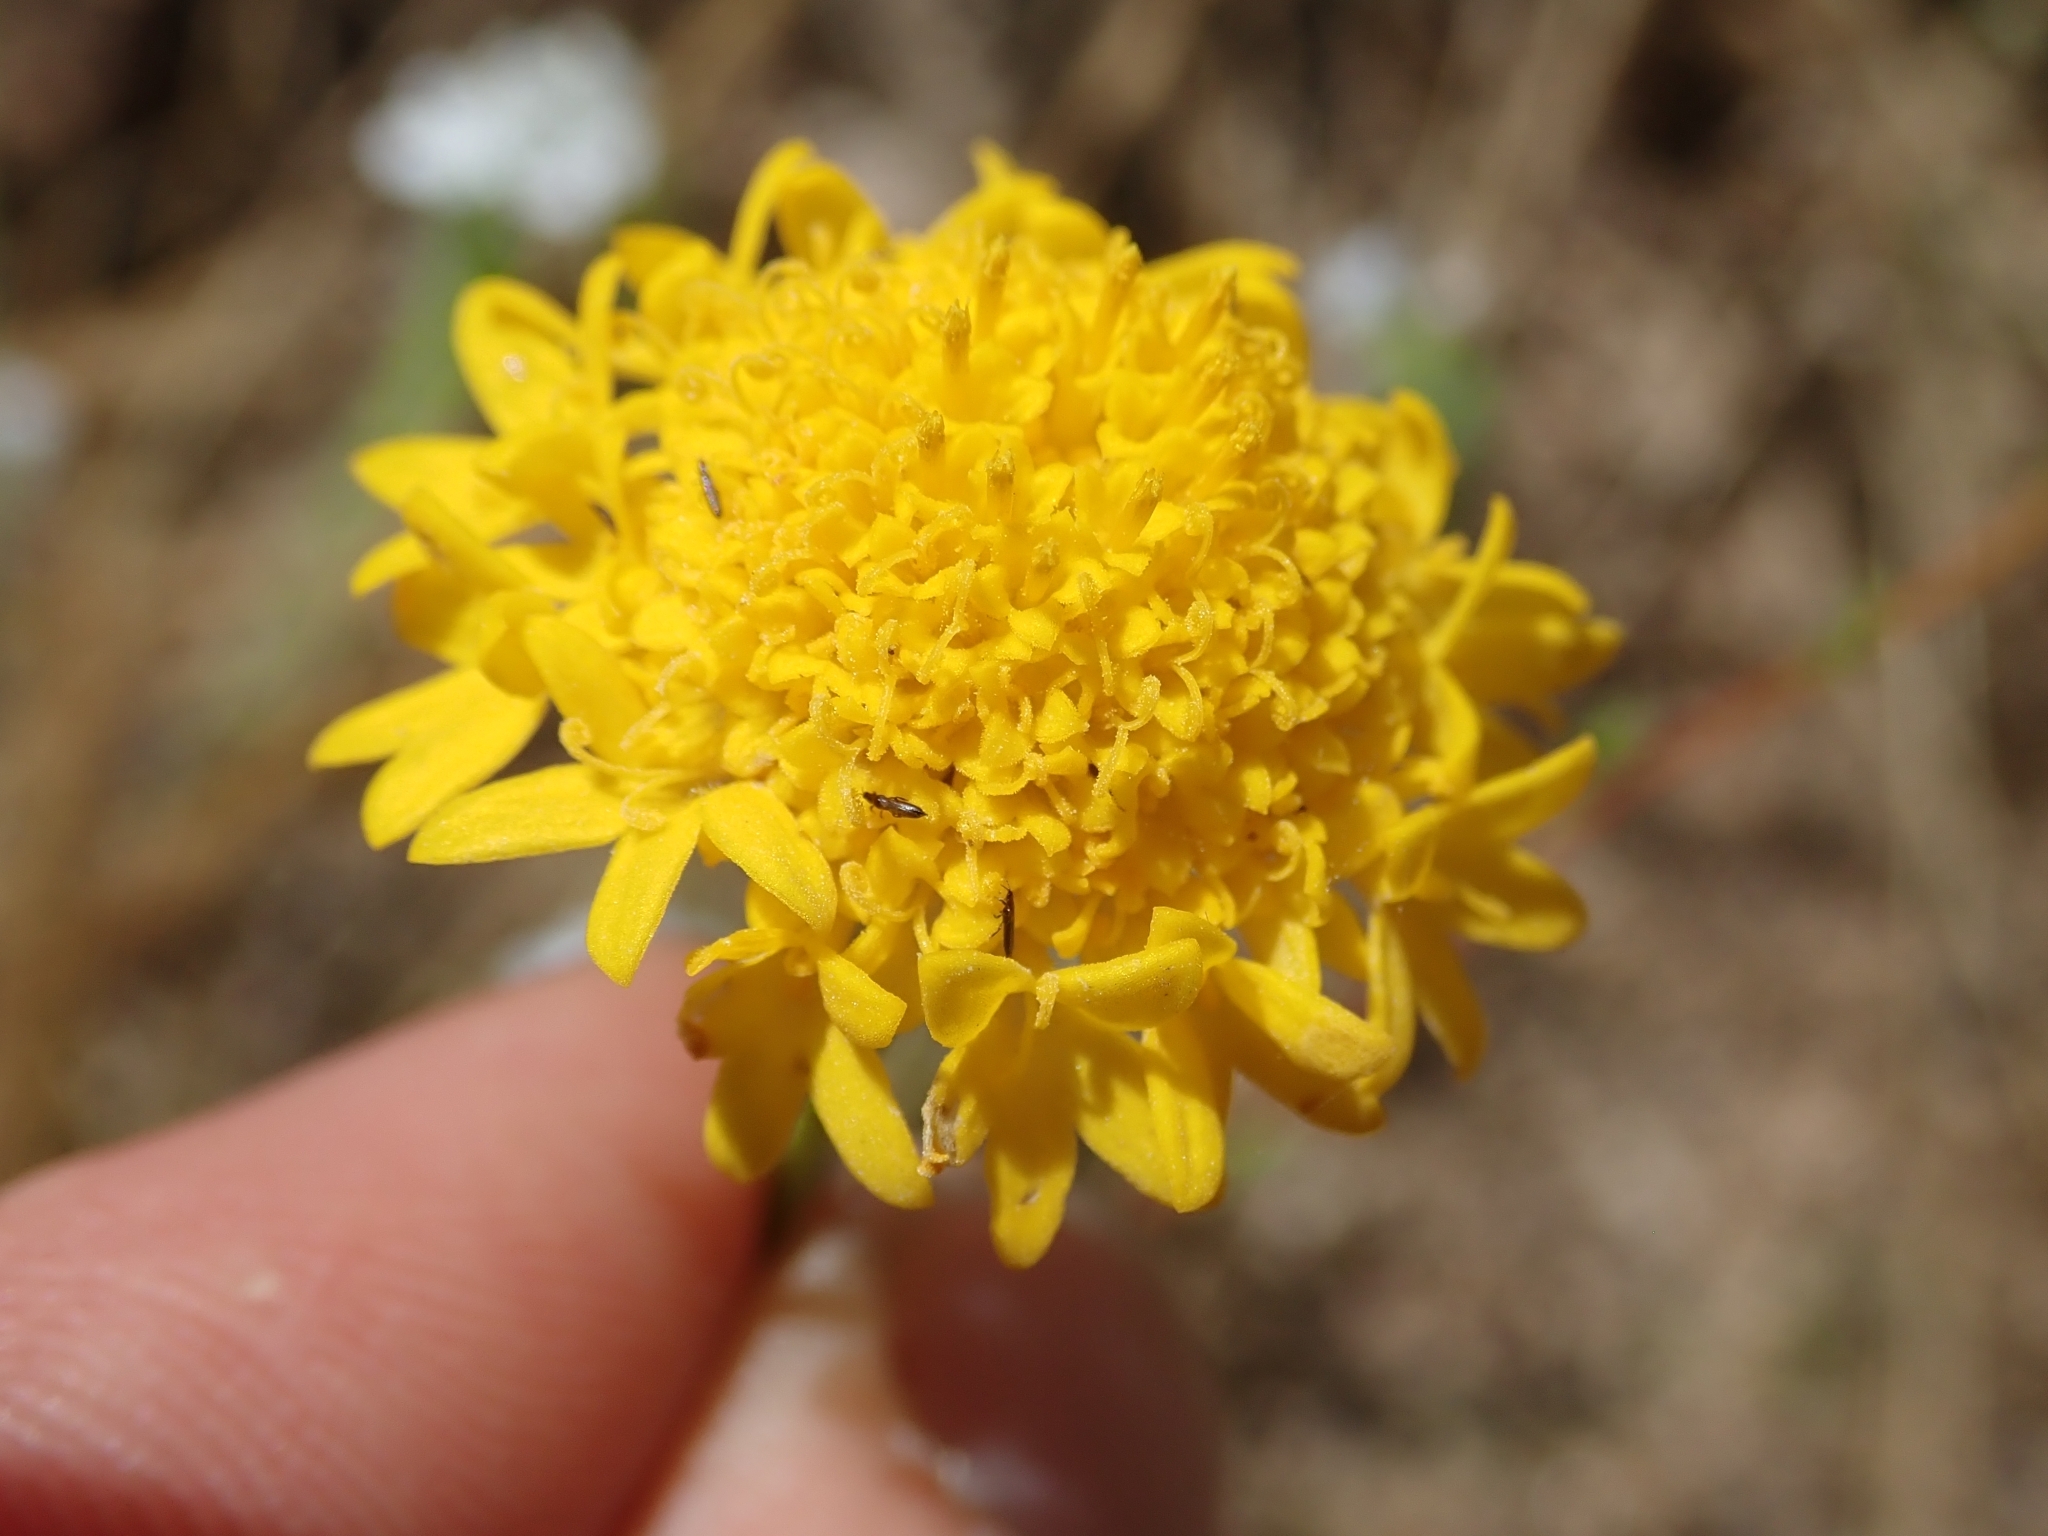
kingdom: Plantae
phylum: Tracheophyta
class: Magnoliopsida
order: Asterales
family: Asteraceae
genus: Chaenactis
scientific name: Chaenactis glabriuscula
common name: Yellow pincushion
